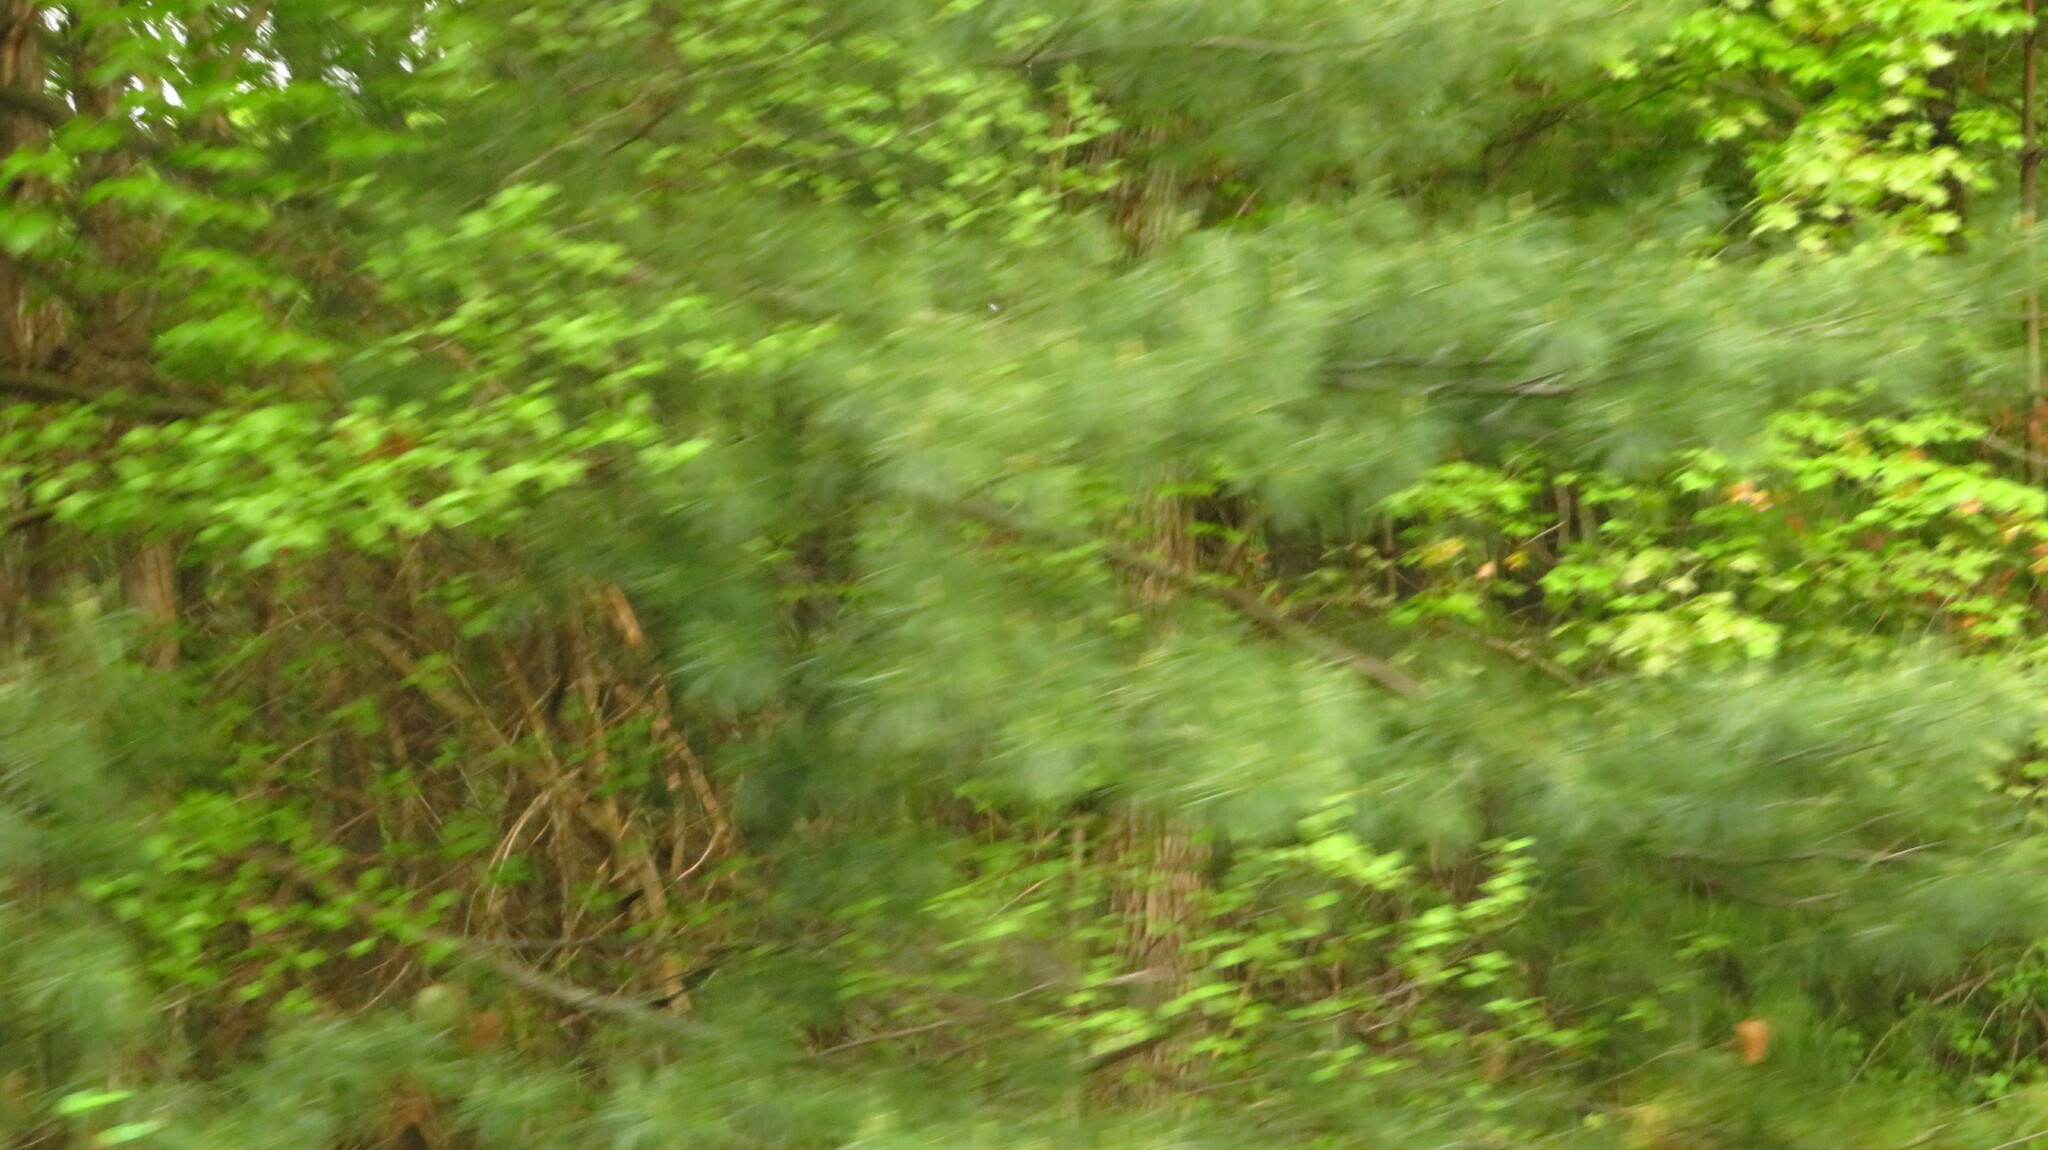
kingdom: Plantae
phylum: Tracheophyta
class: Pinopsida
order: Pinales
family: Pinaceae
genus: Pinus
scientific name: Pinus strobus
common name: Weymouth pine
